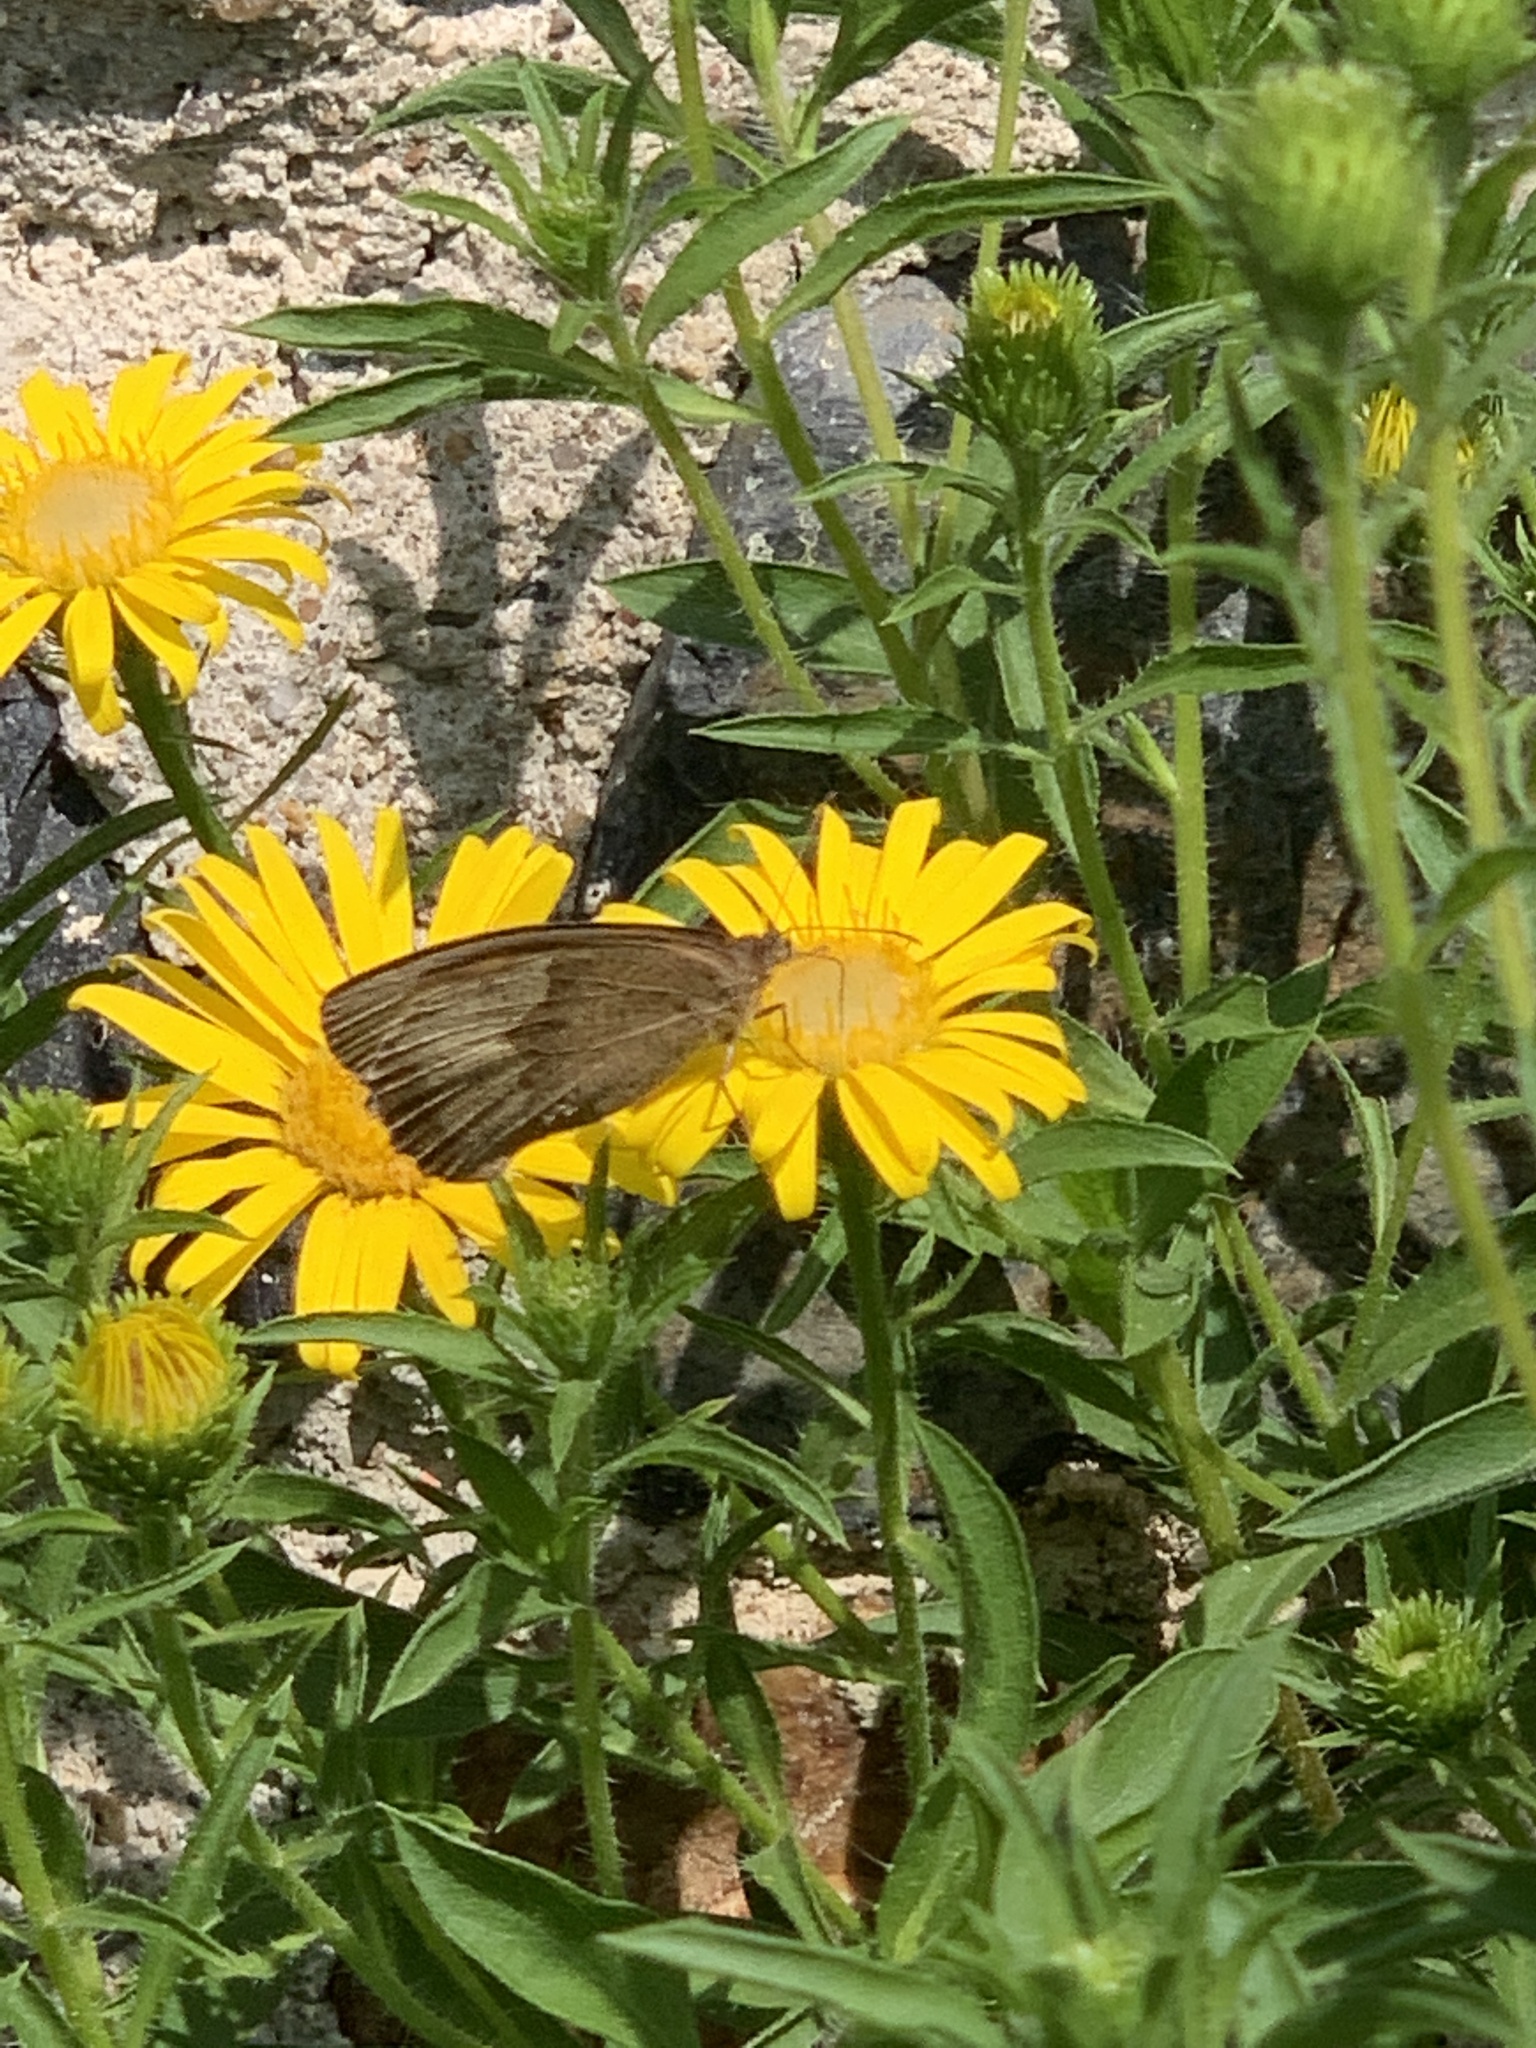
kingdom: Animalia
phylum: Arthropoda
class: Insecta
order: Lepidoptera
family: Nymphalidae
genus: Maniola
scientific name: Maniola jurtina
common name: Meadow brown
